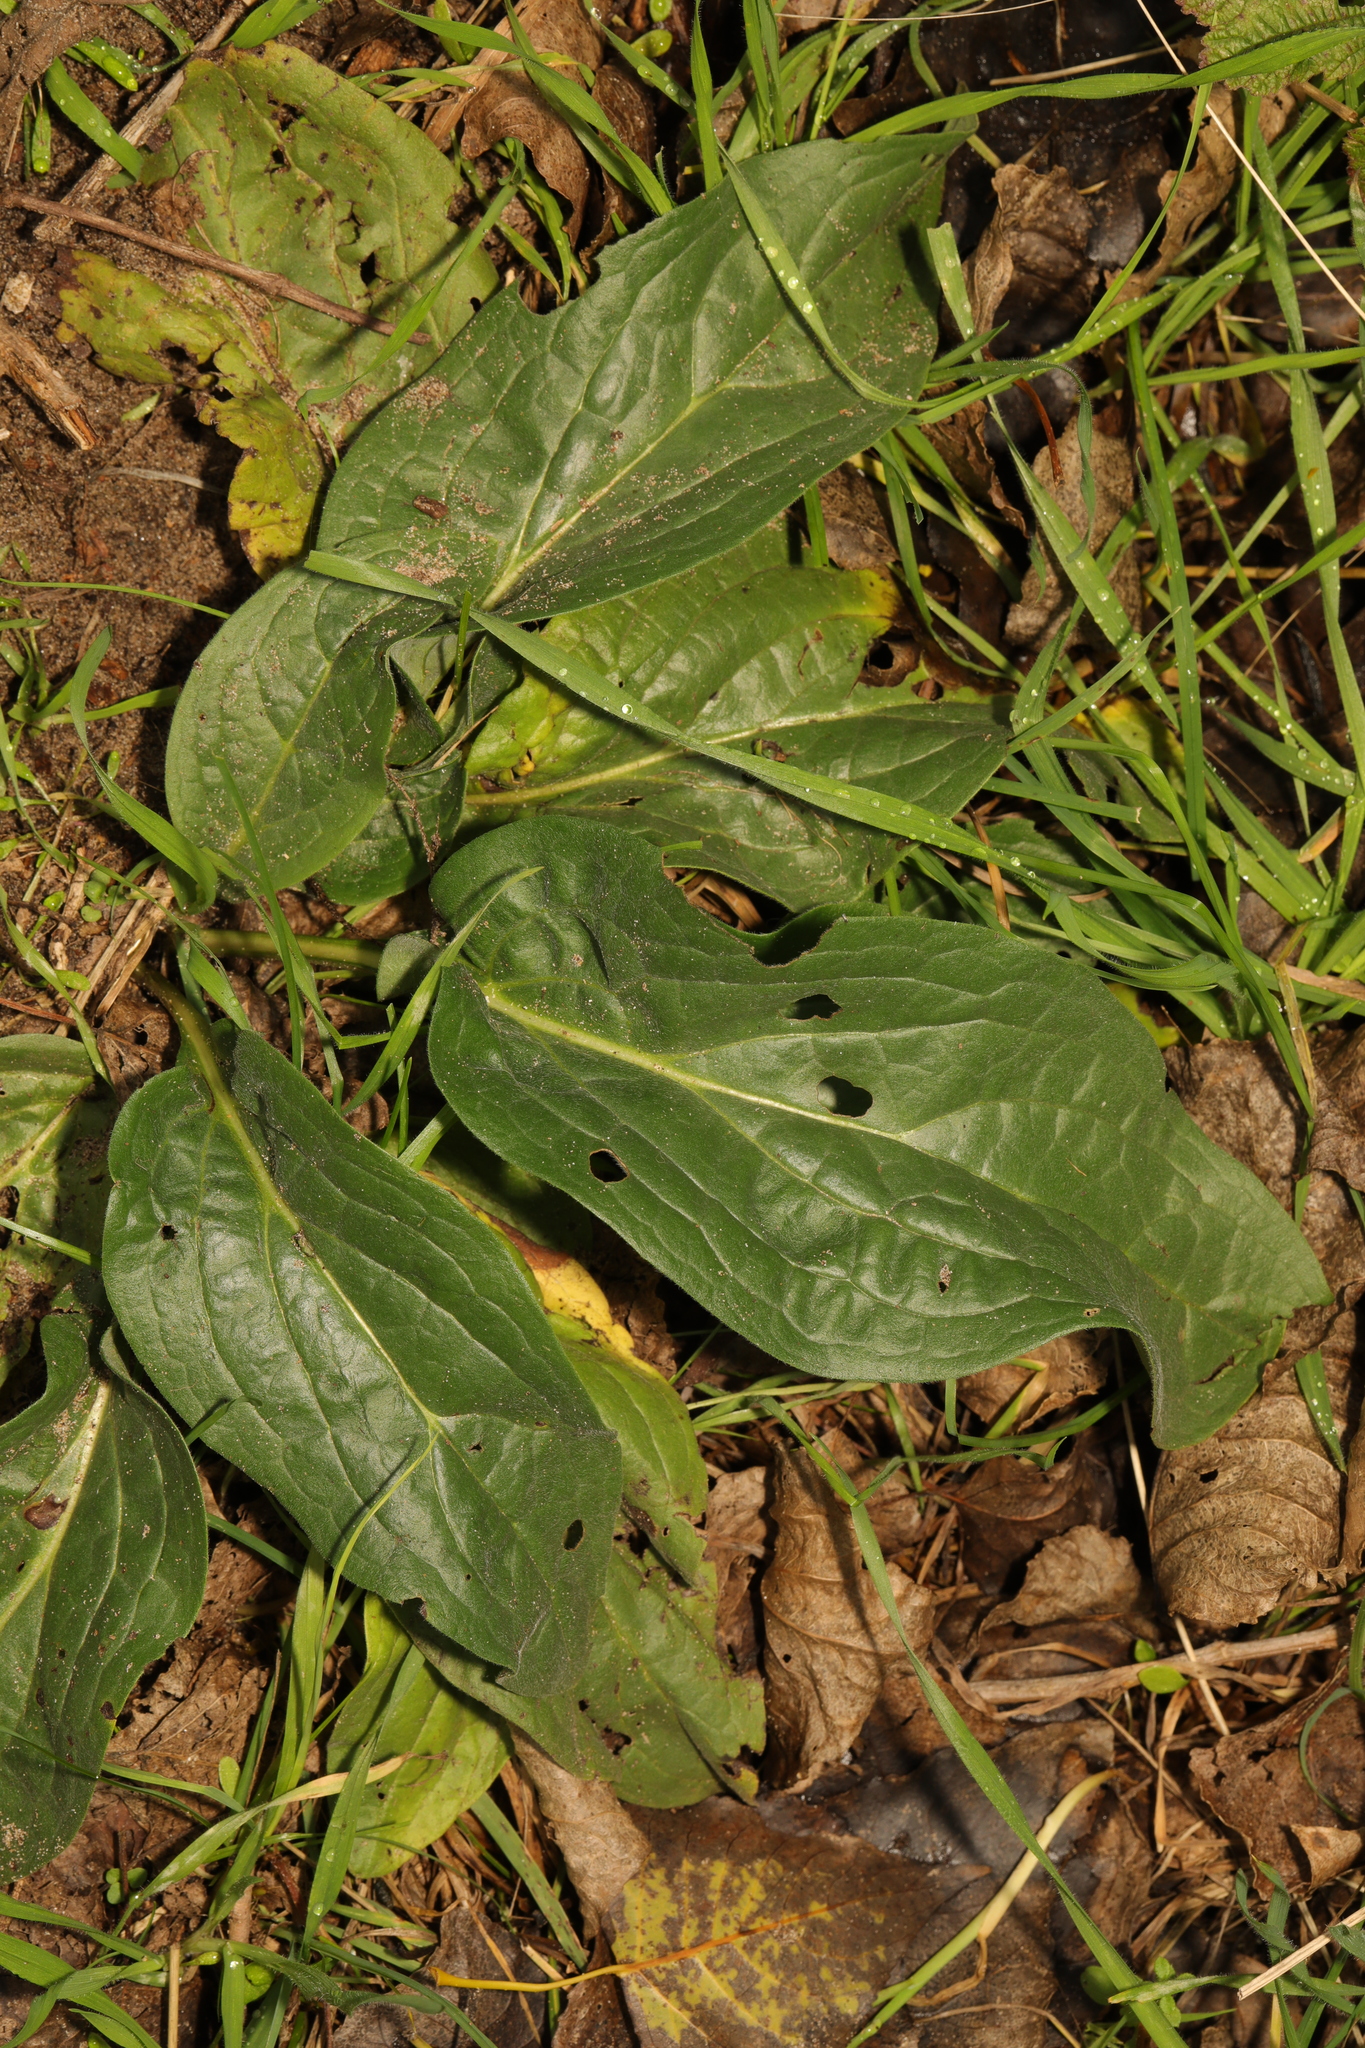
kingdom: Plantae
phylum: Tracheophyta
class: Magnoliopsida
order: Boraginales
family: Boraginaceae
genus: Cynoglossum
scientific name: Cynoglossum officinale
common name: Hound's-tongue
